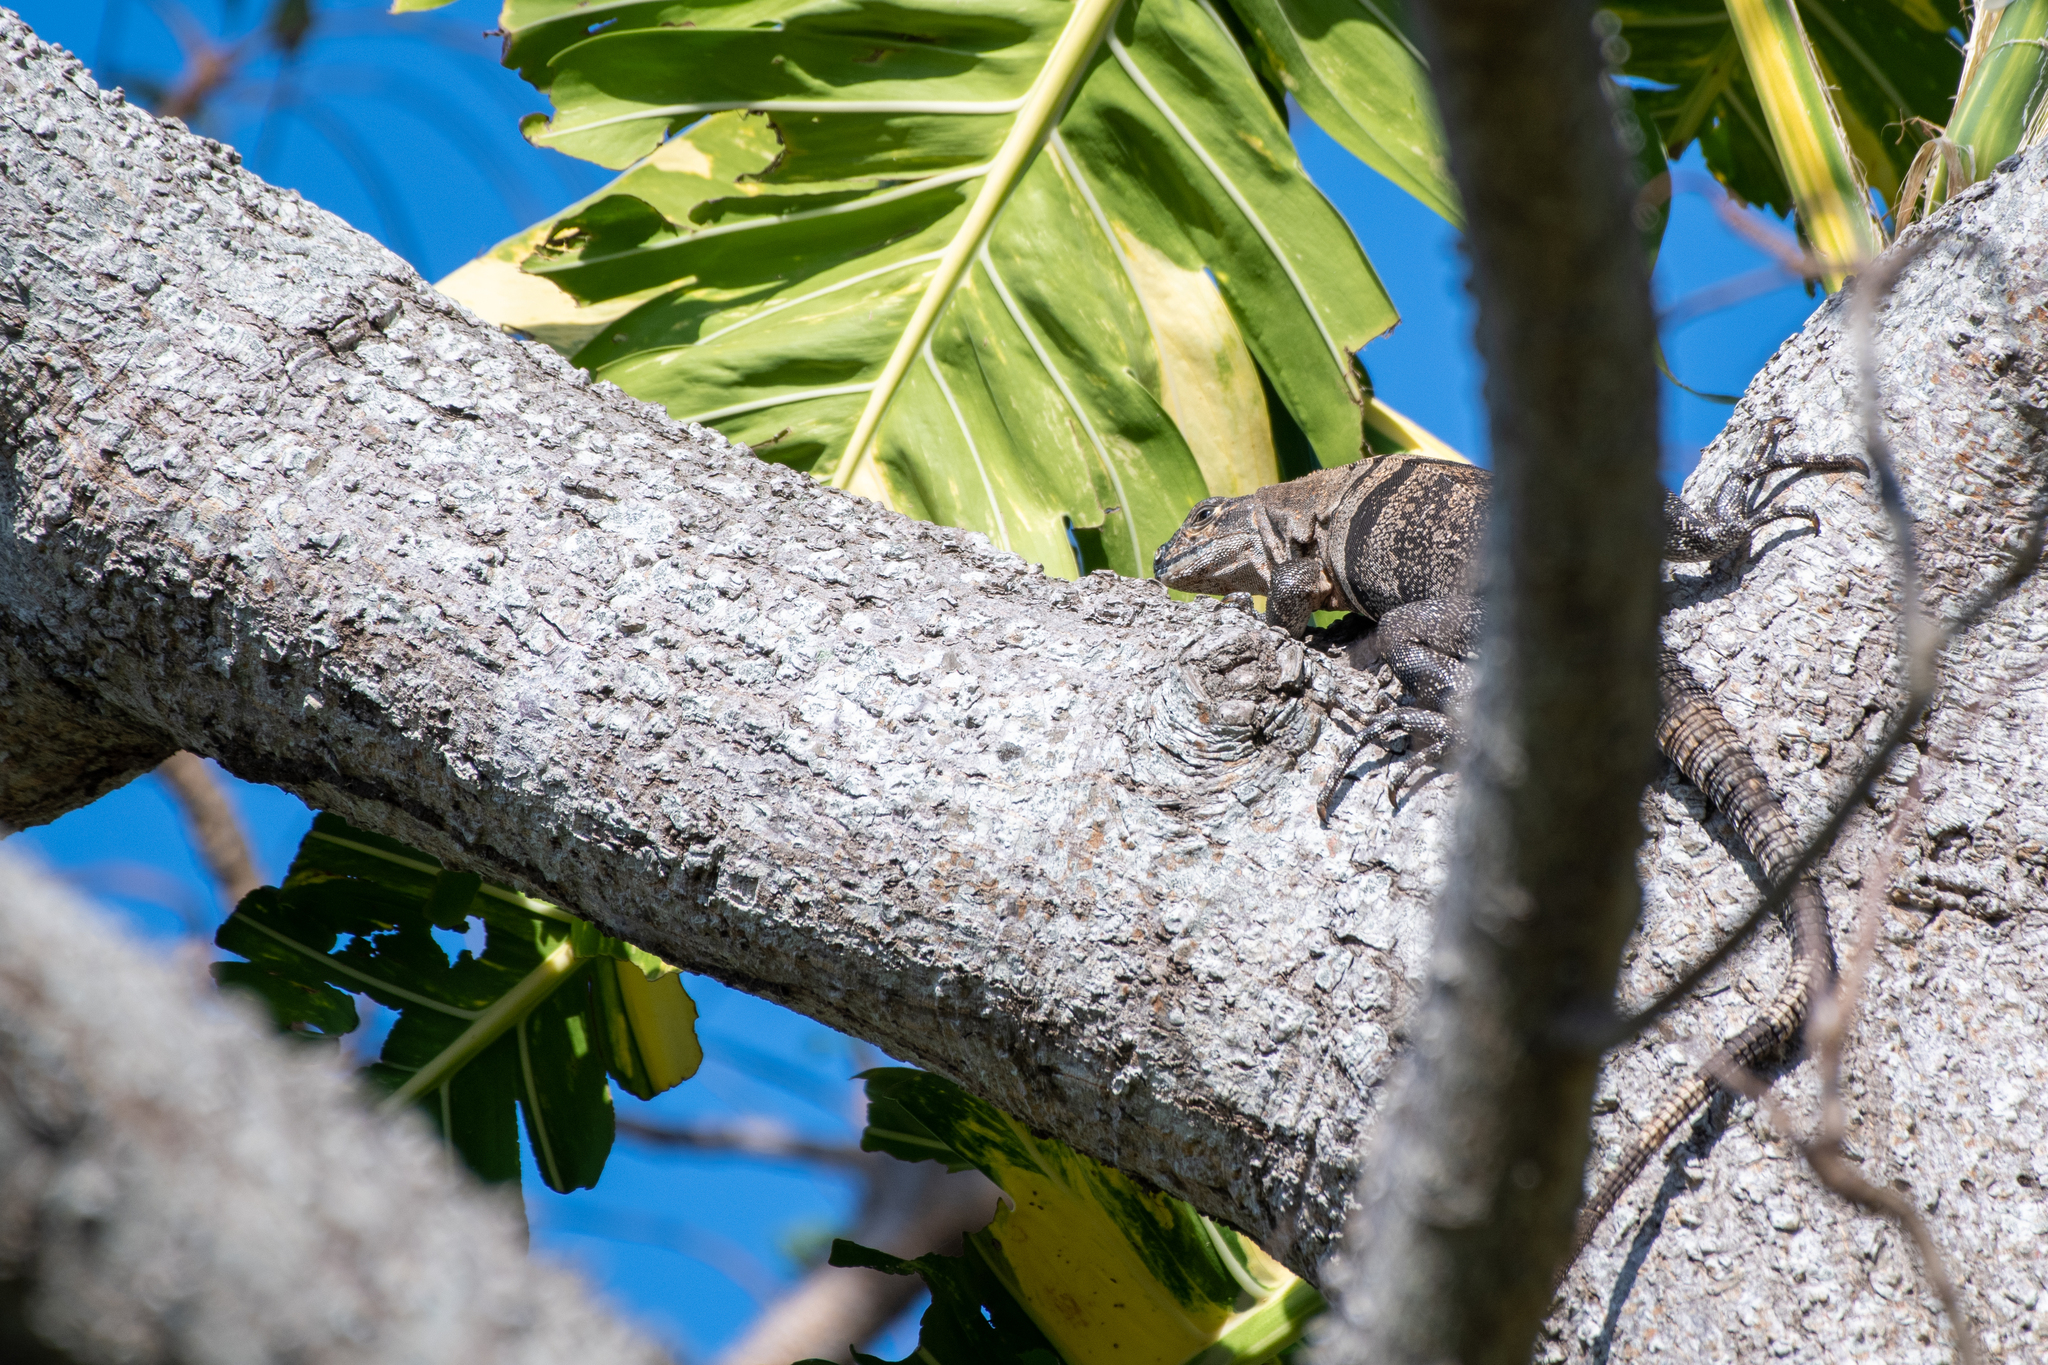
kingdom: Animalia
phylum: Chordata
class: Squamata
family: Iguanidae
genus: Ctenosaura
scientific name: Ctenosaura similis
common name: Black spiny-tailed iguana
